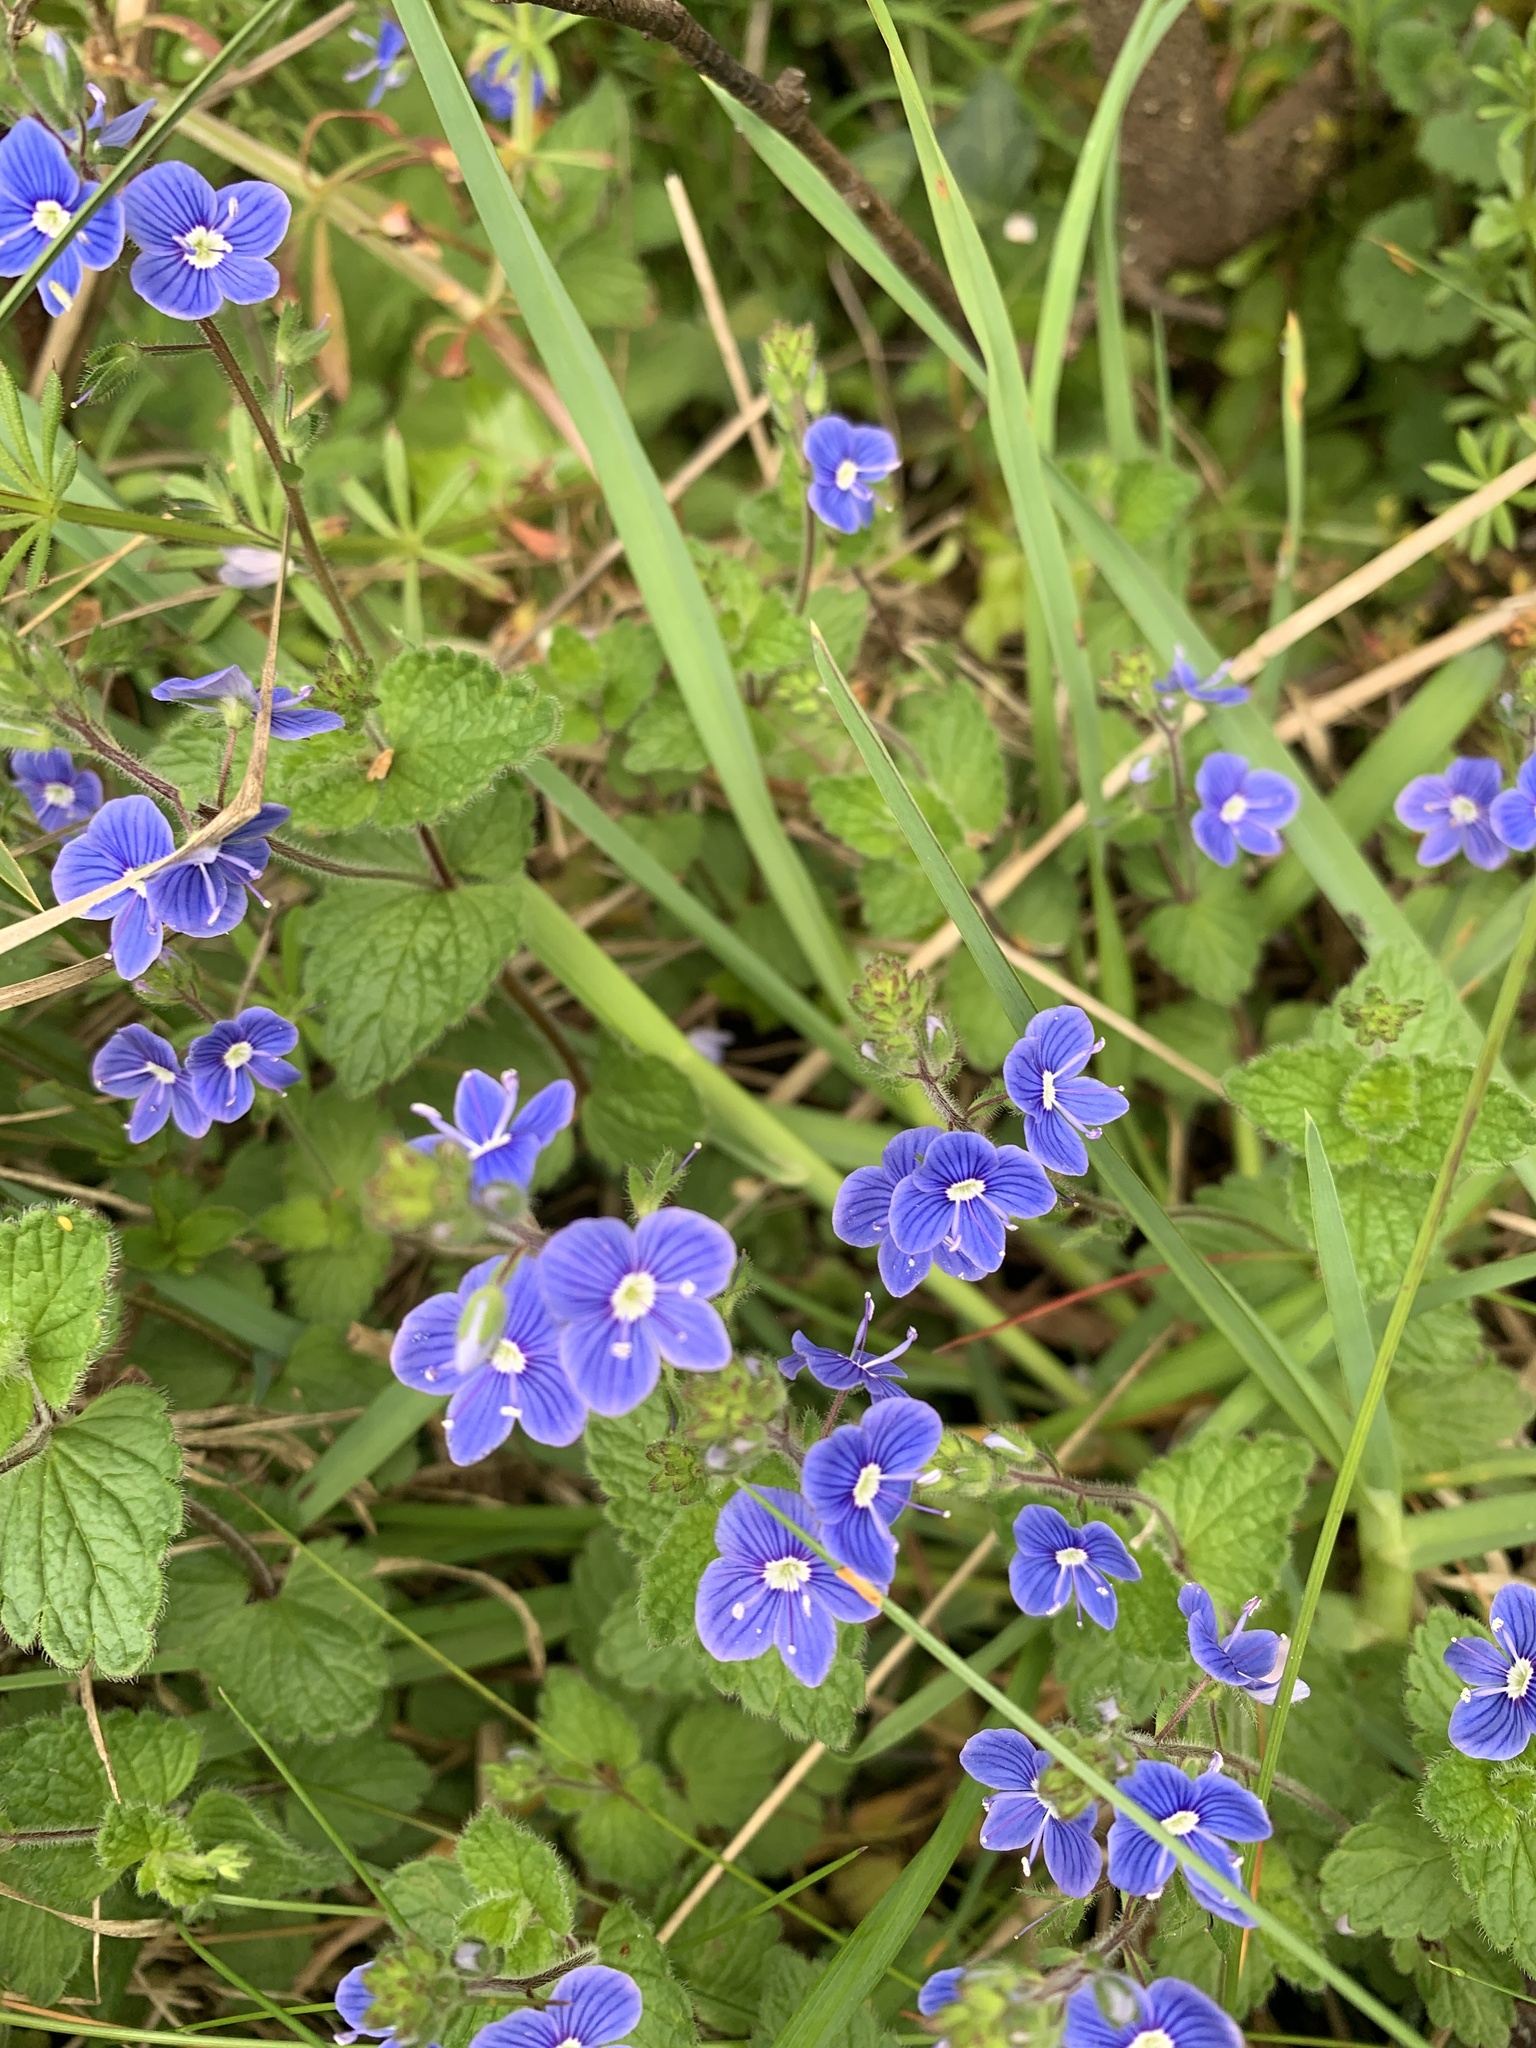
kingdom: Plantae
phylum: Tracheophyta
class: Magnoliopsida
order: Lamiales
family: Plantaginaceae
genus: Veronica
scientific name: Veronica chamaedrys
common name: Germander speedwell
